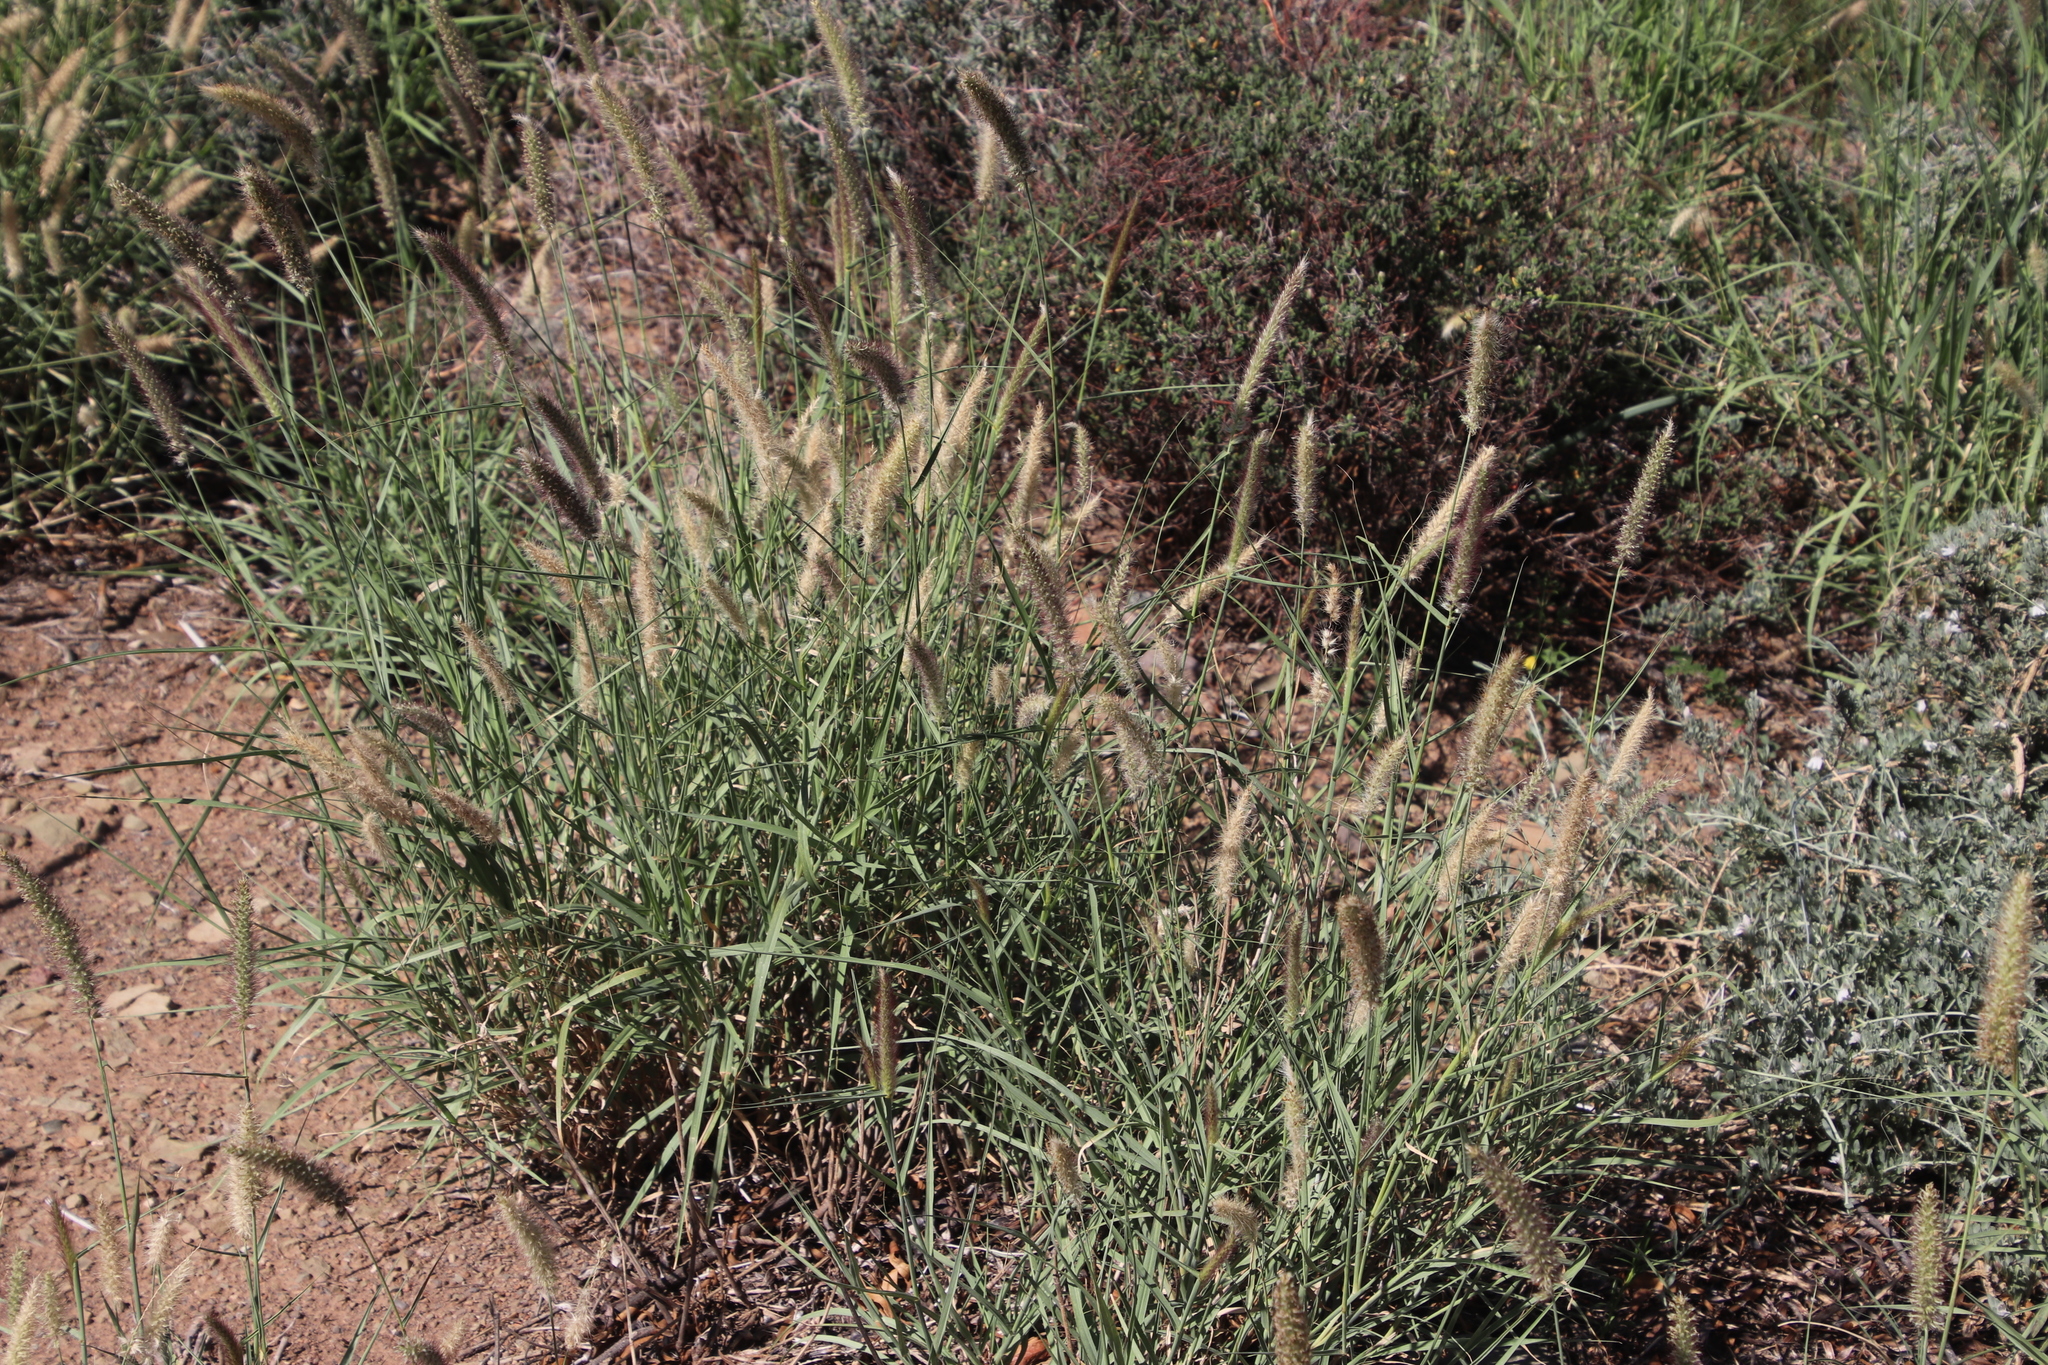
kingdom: Plantae
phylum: Tracheophyta
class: Liliopsida
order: Poales
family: Poaceae
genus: Cenchrus
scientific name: Cenchrus ciliaris
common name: Buffelgrass
